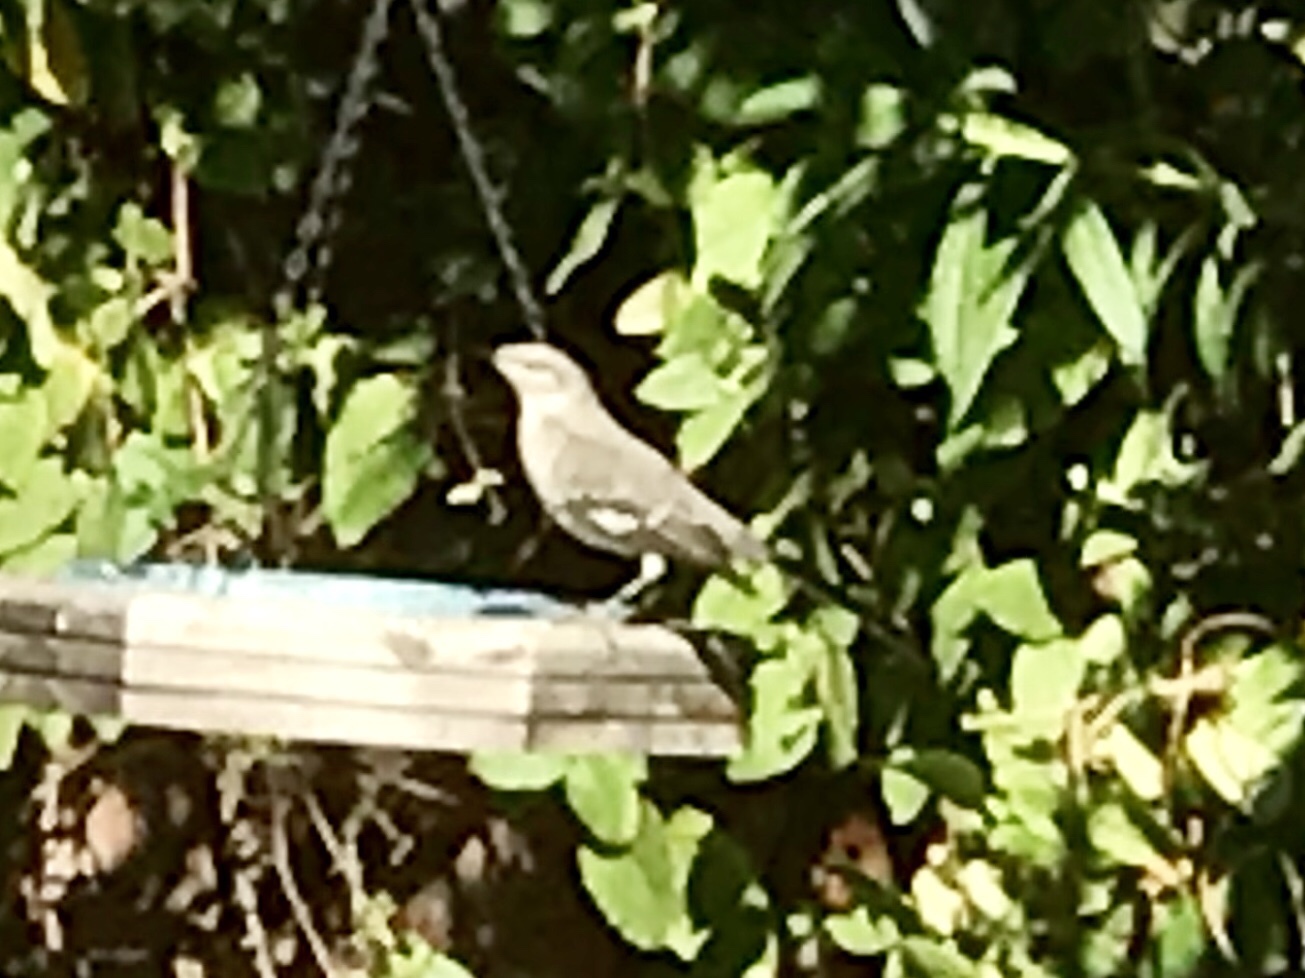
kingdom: Animalia
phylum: Chordata
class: Aves
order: Passeriformes
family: Mimidae
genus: Mimus
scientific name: Mimus polyglottos
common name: Northern mockingbird
